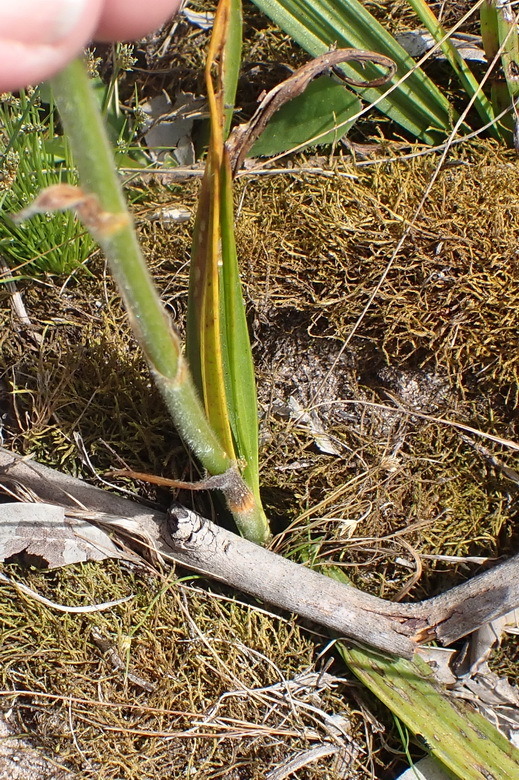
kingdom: Plantae
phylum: Tracheophyta
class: Liliopsida
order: Commelinales
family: Haemodoraceae
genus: Wachendorfia
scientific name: Wachendorfia paniculata
